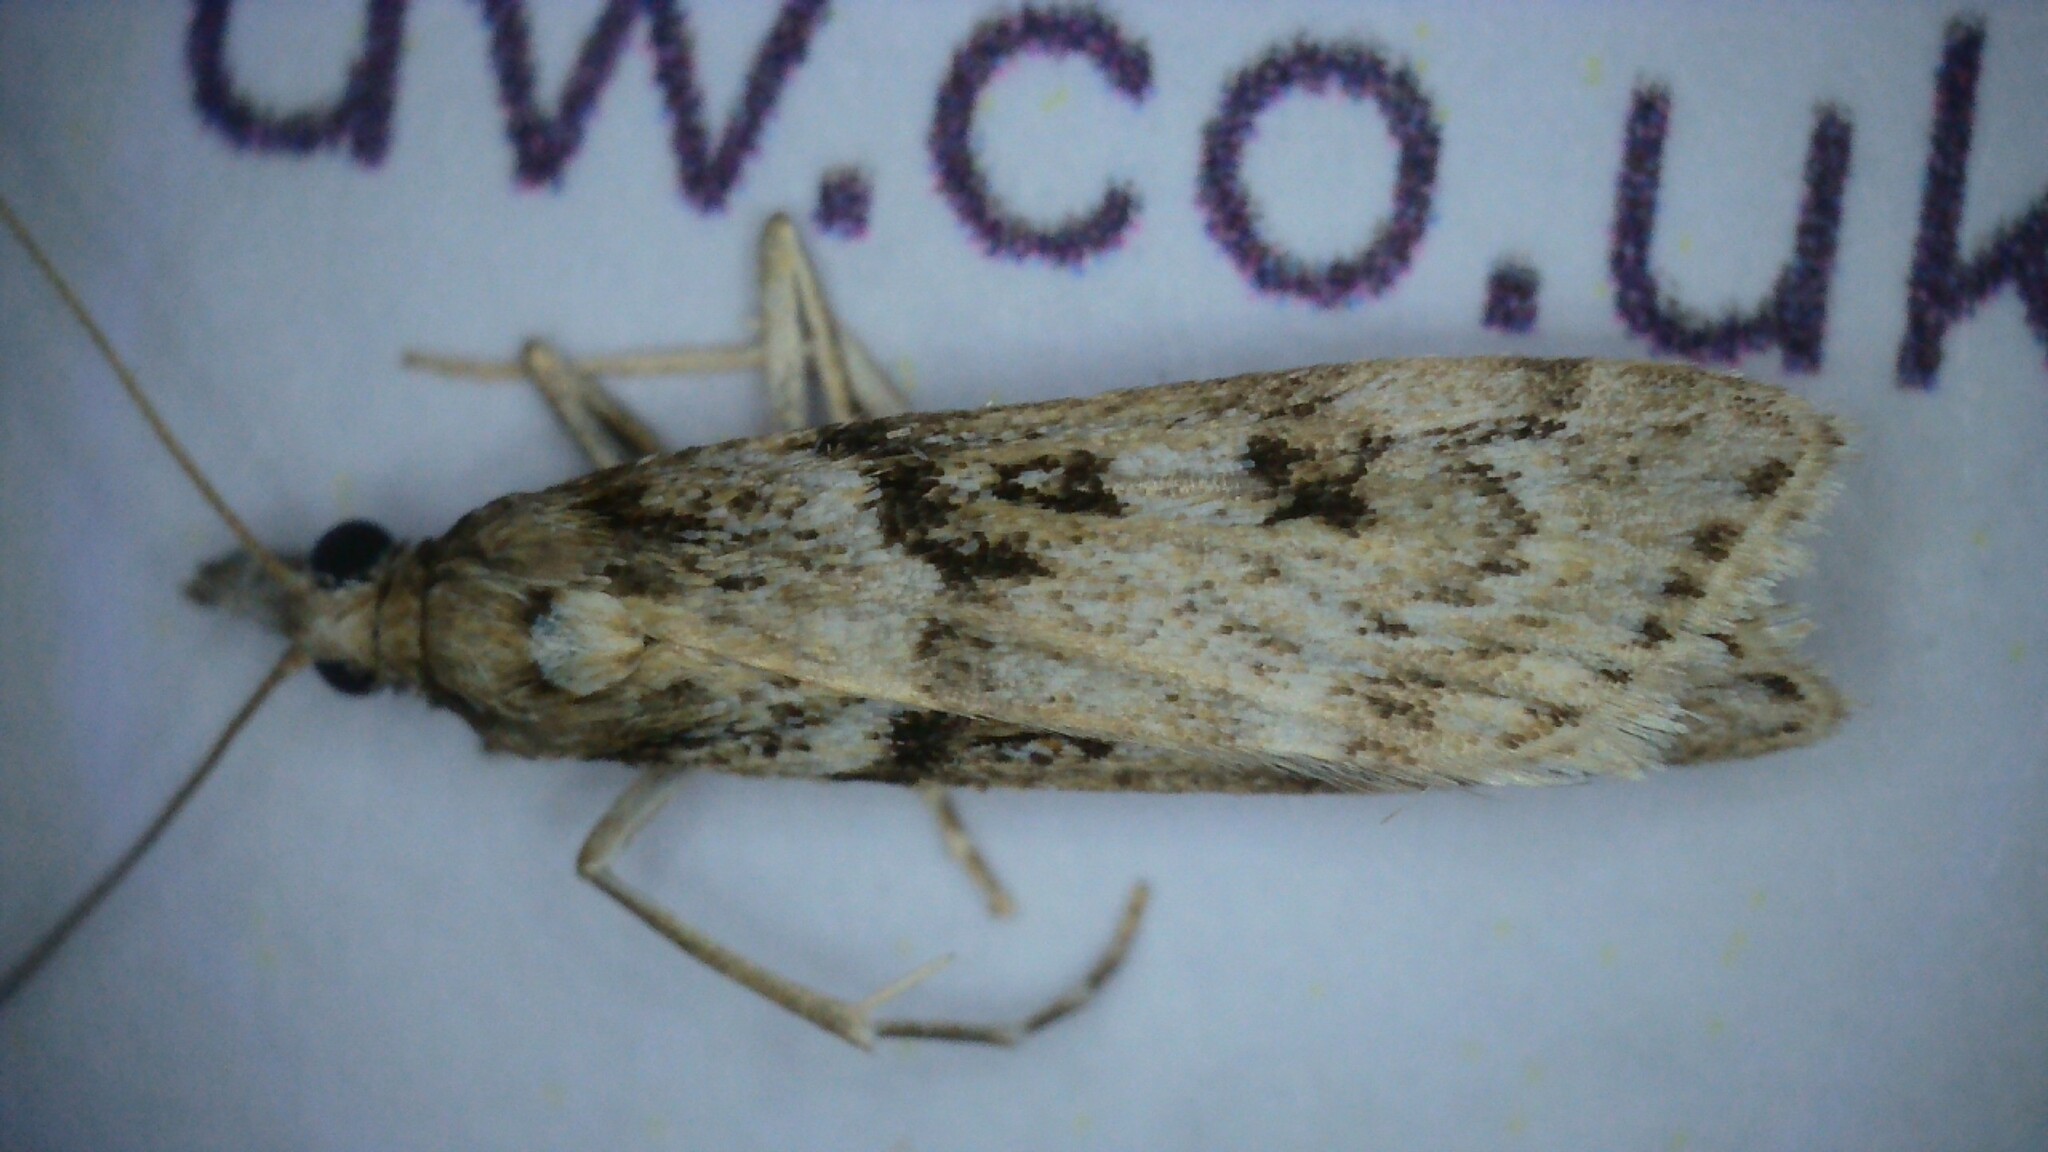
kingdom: Animalia
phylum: Arthropoda
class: Insecta
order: Lepidoptera
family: Crambidae
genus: Eudonia
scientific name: Eudonia angustea
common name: Narrow-winged grey
